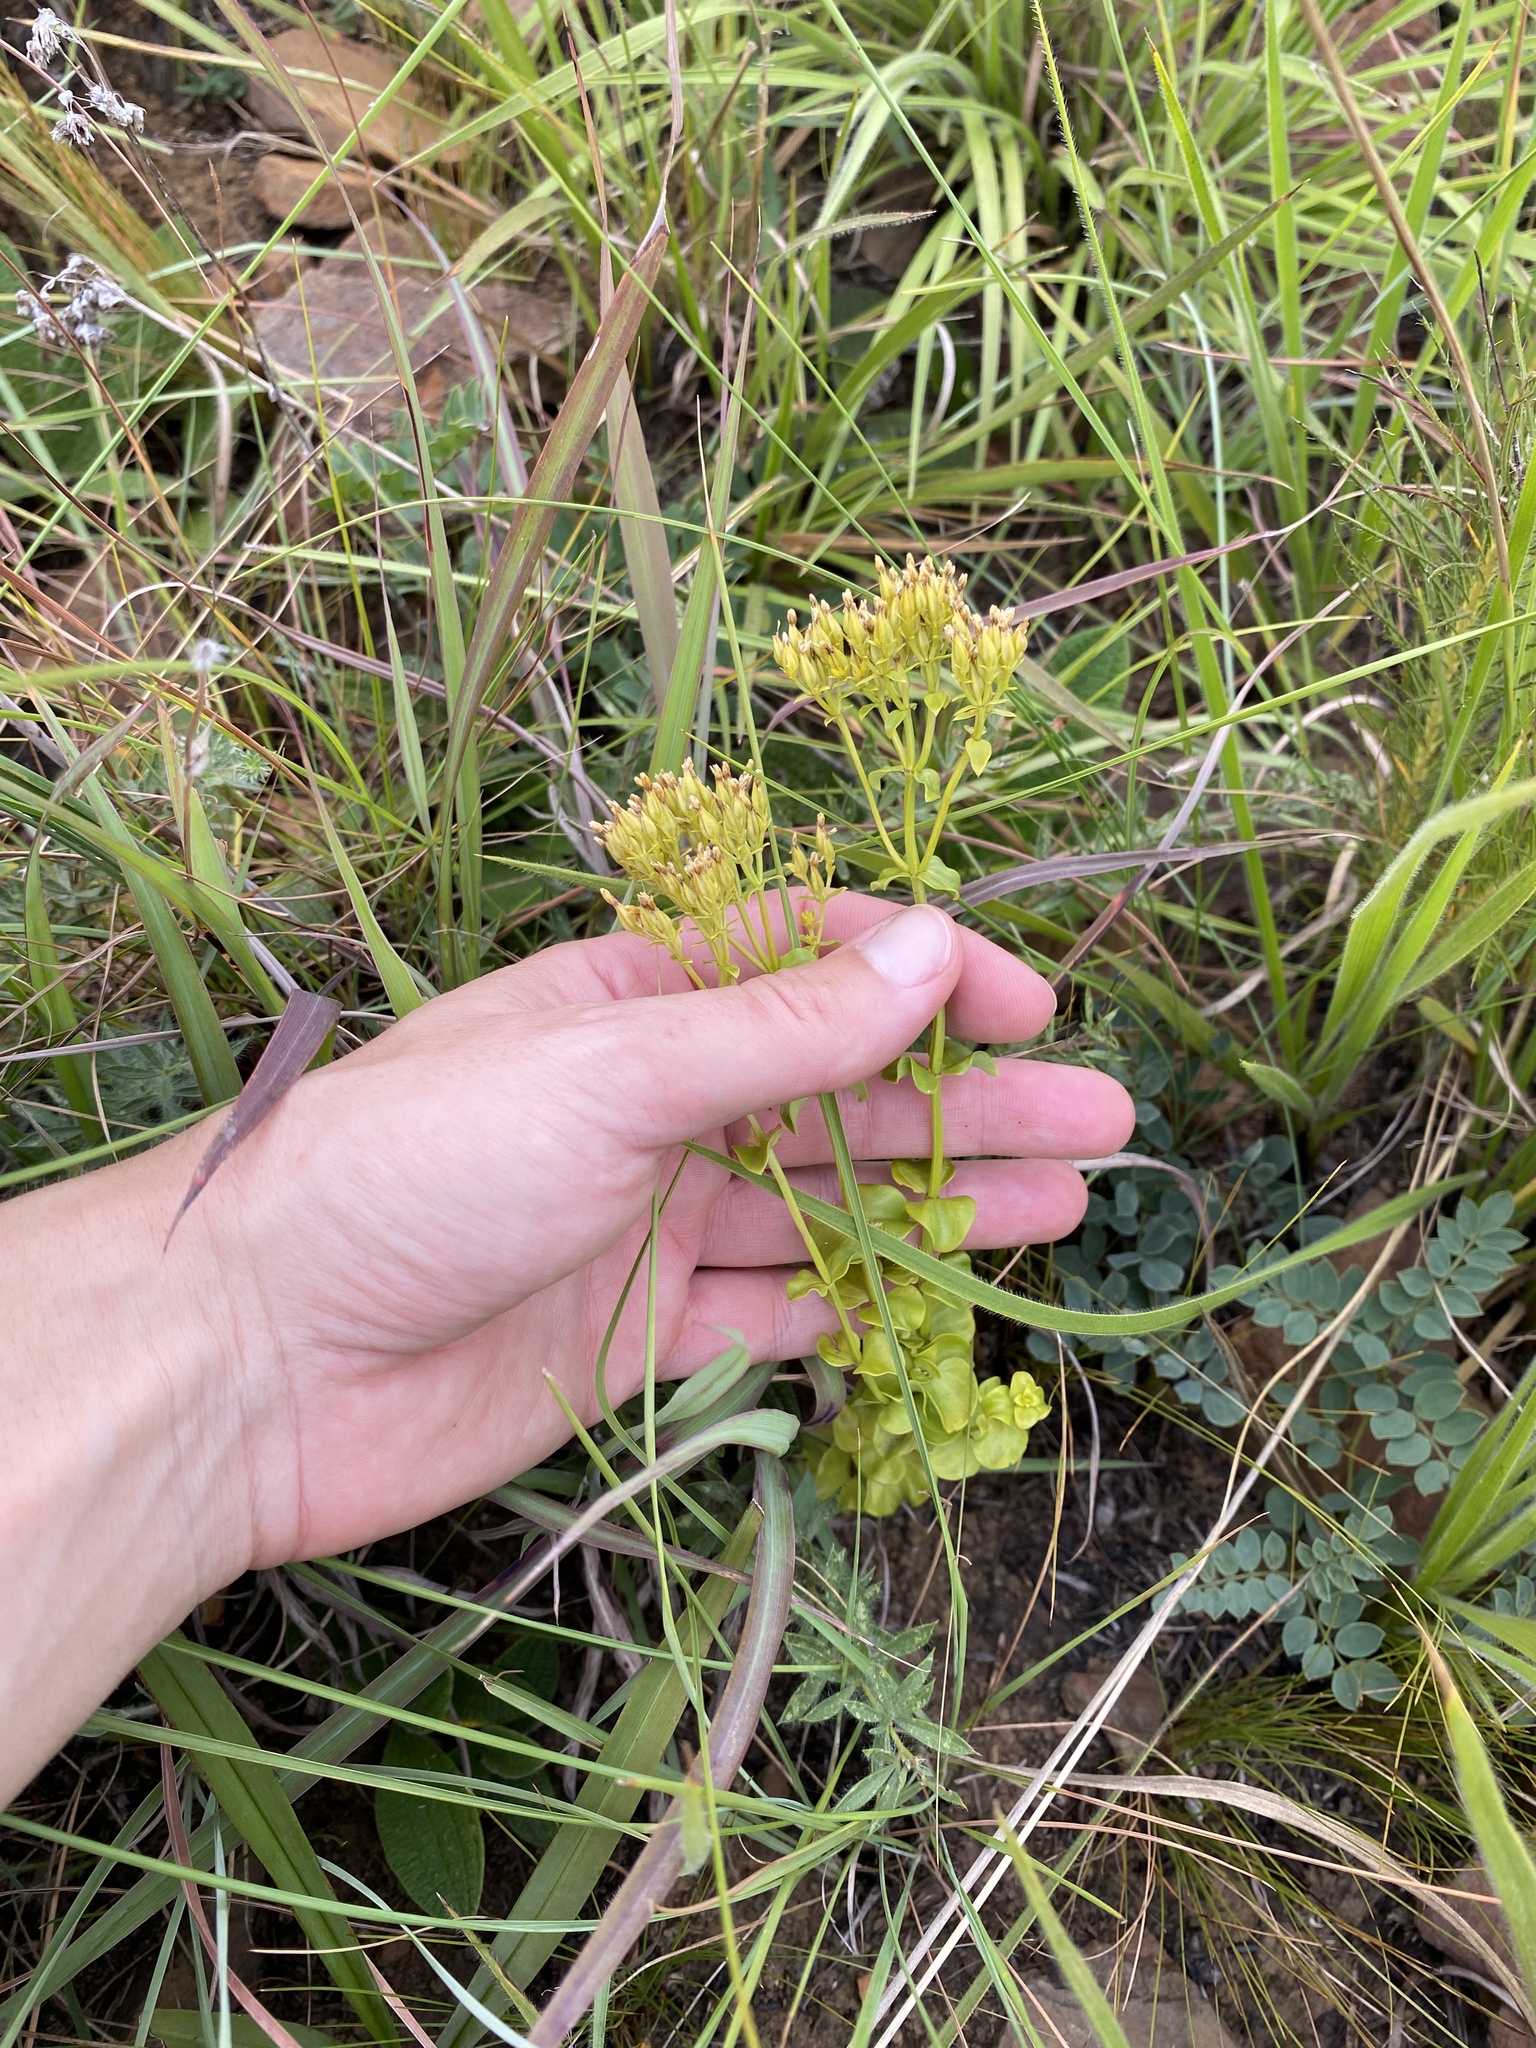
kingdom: Plantae
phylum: Tracheophyta
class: Magnoliopsida
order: Gentianales
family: Gentianaceae
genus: Sebaea
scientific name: Sebaea sedoides
